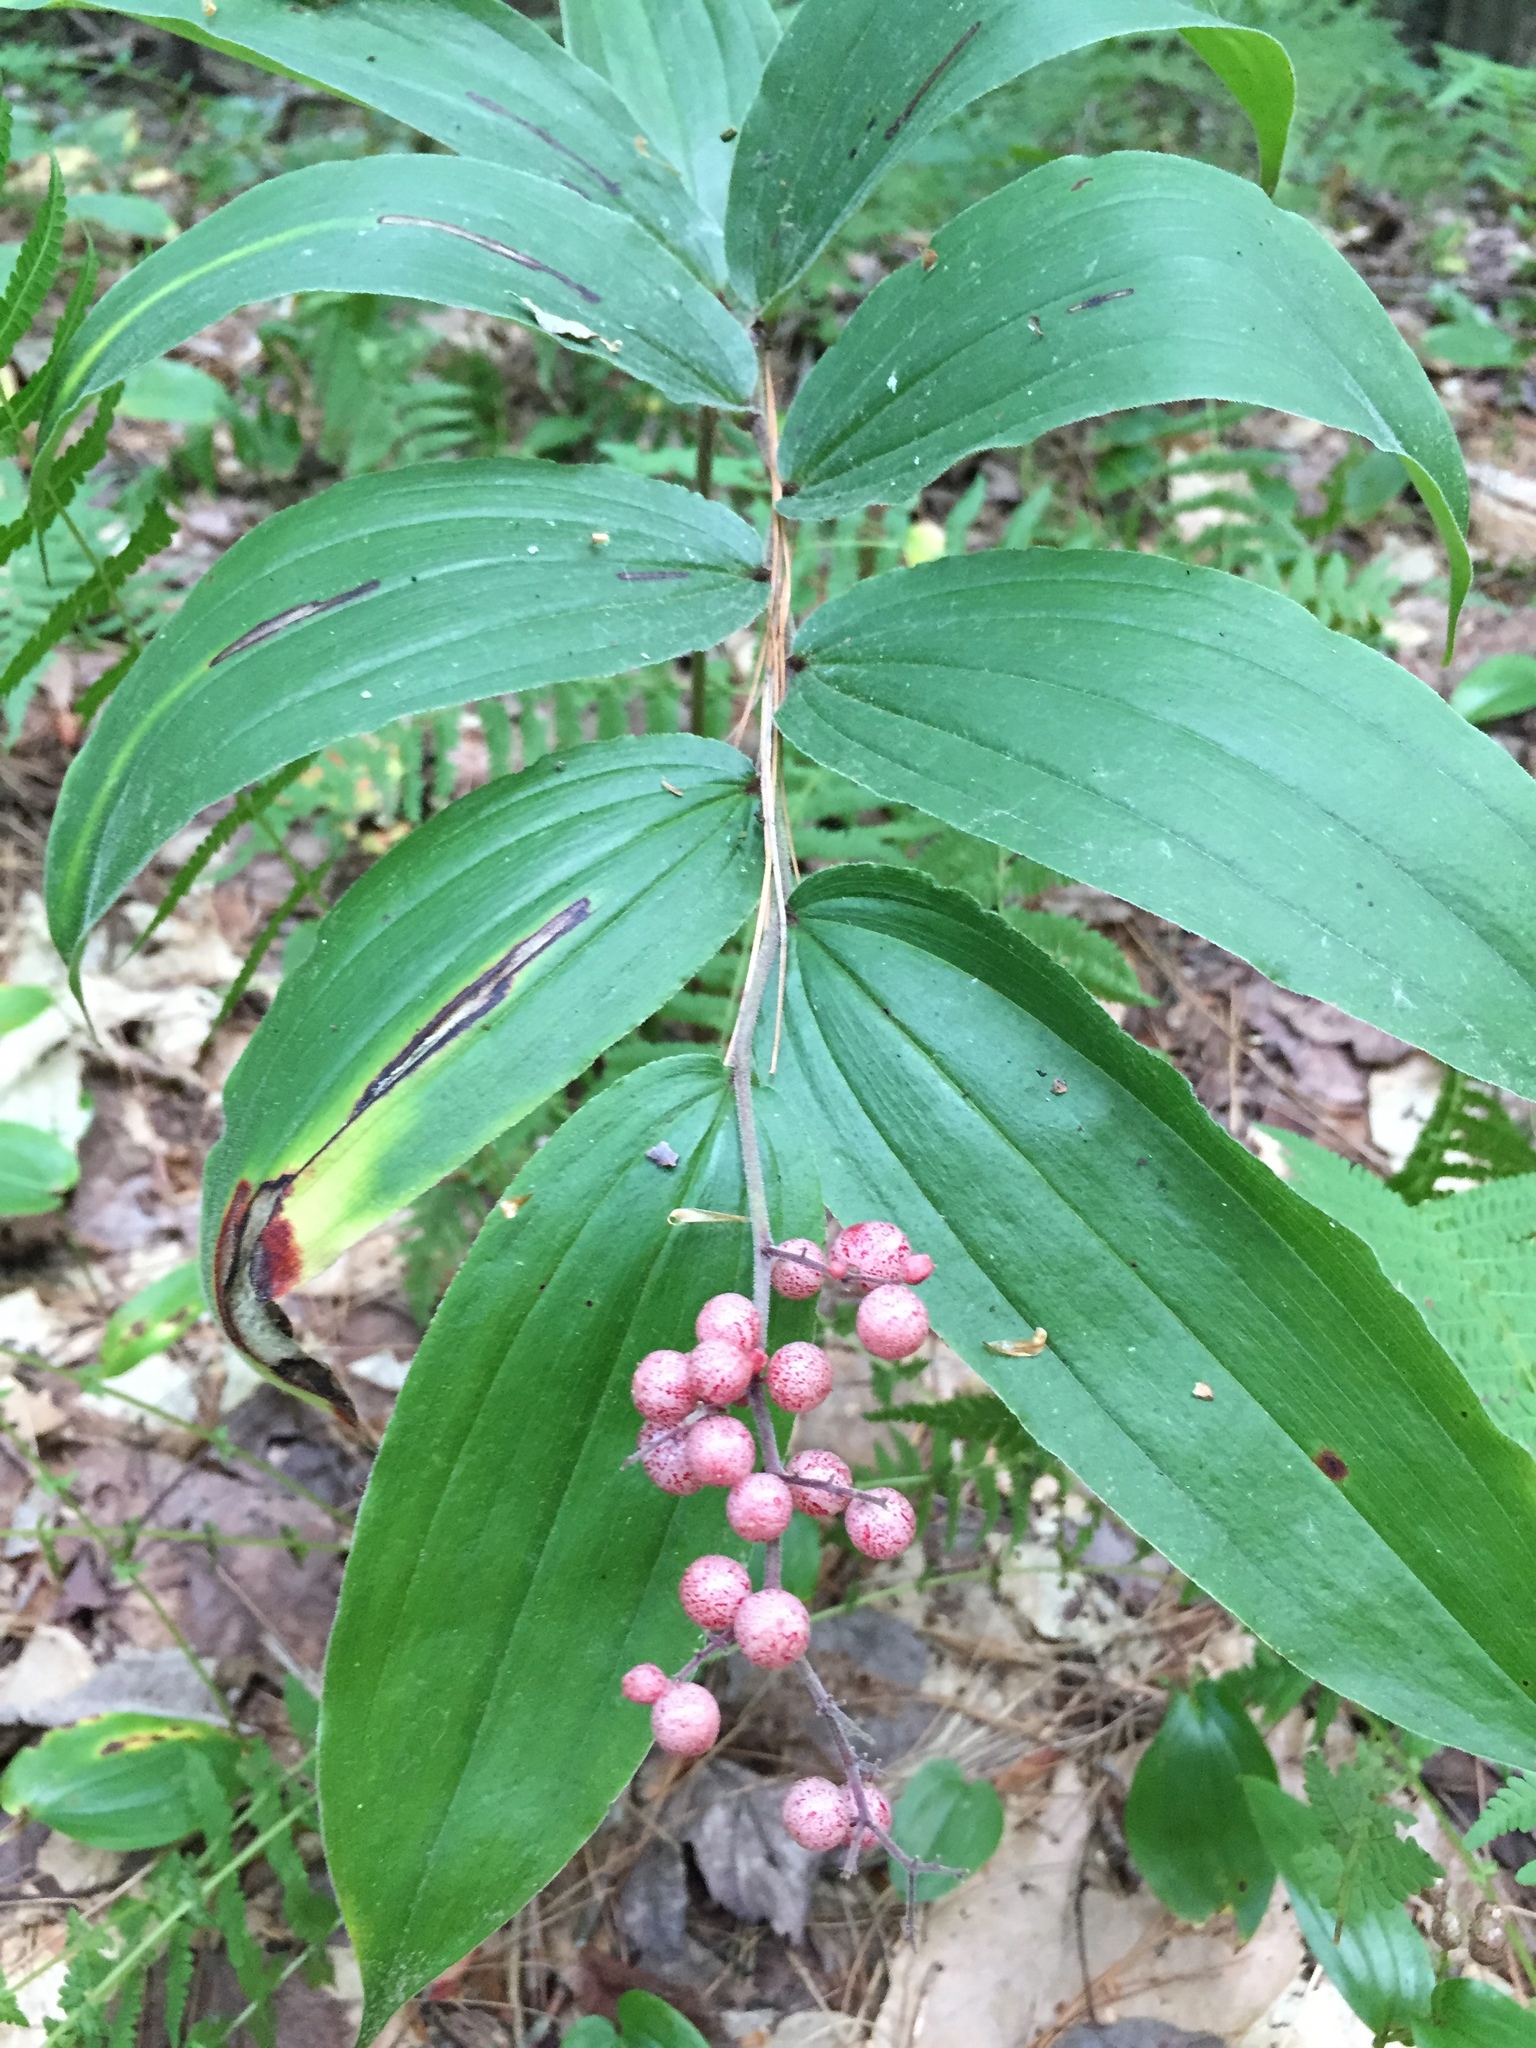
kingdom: Plantae
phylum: Tracheophyta
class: Liliopsida
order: Asparagales
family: Asparagaceae
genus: Maianthemum
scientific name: Maianthemum racemosum
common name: False spikenard
